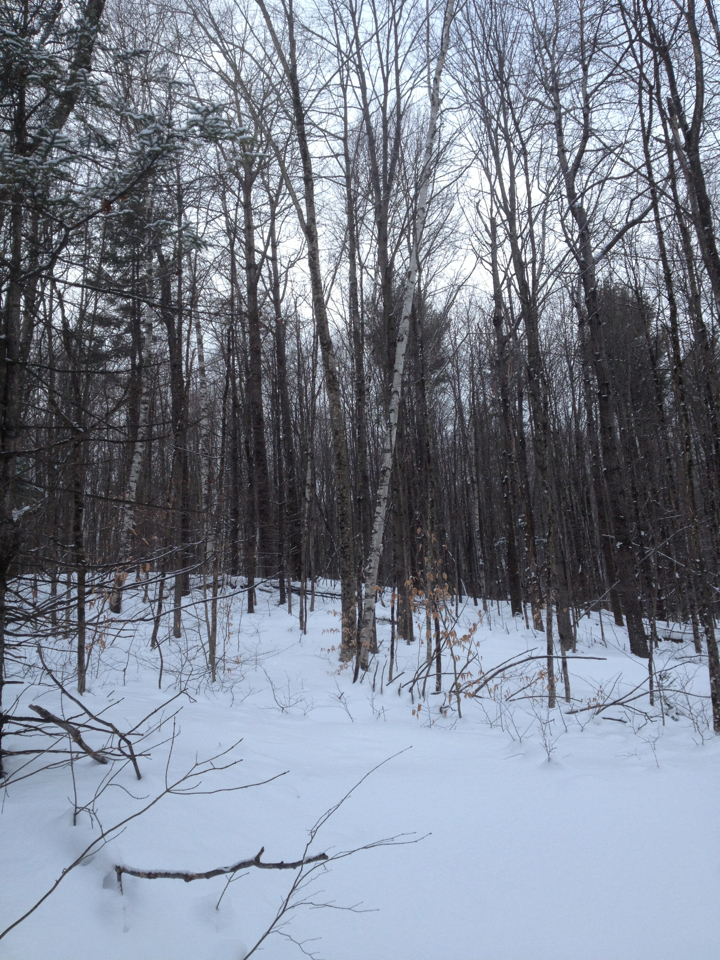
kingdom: Plantae
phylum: Tracheophyta
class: Magnoliopsida
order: Fagales
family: Betulaceae
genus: Betula
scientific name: Betula papyrifera
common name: Paper birch
